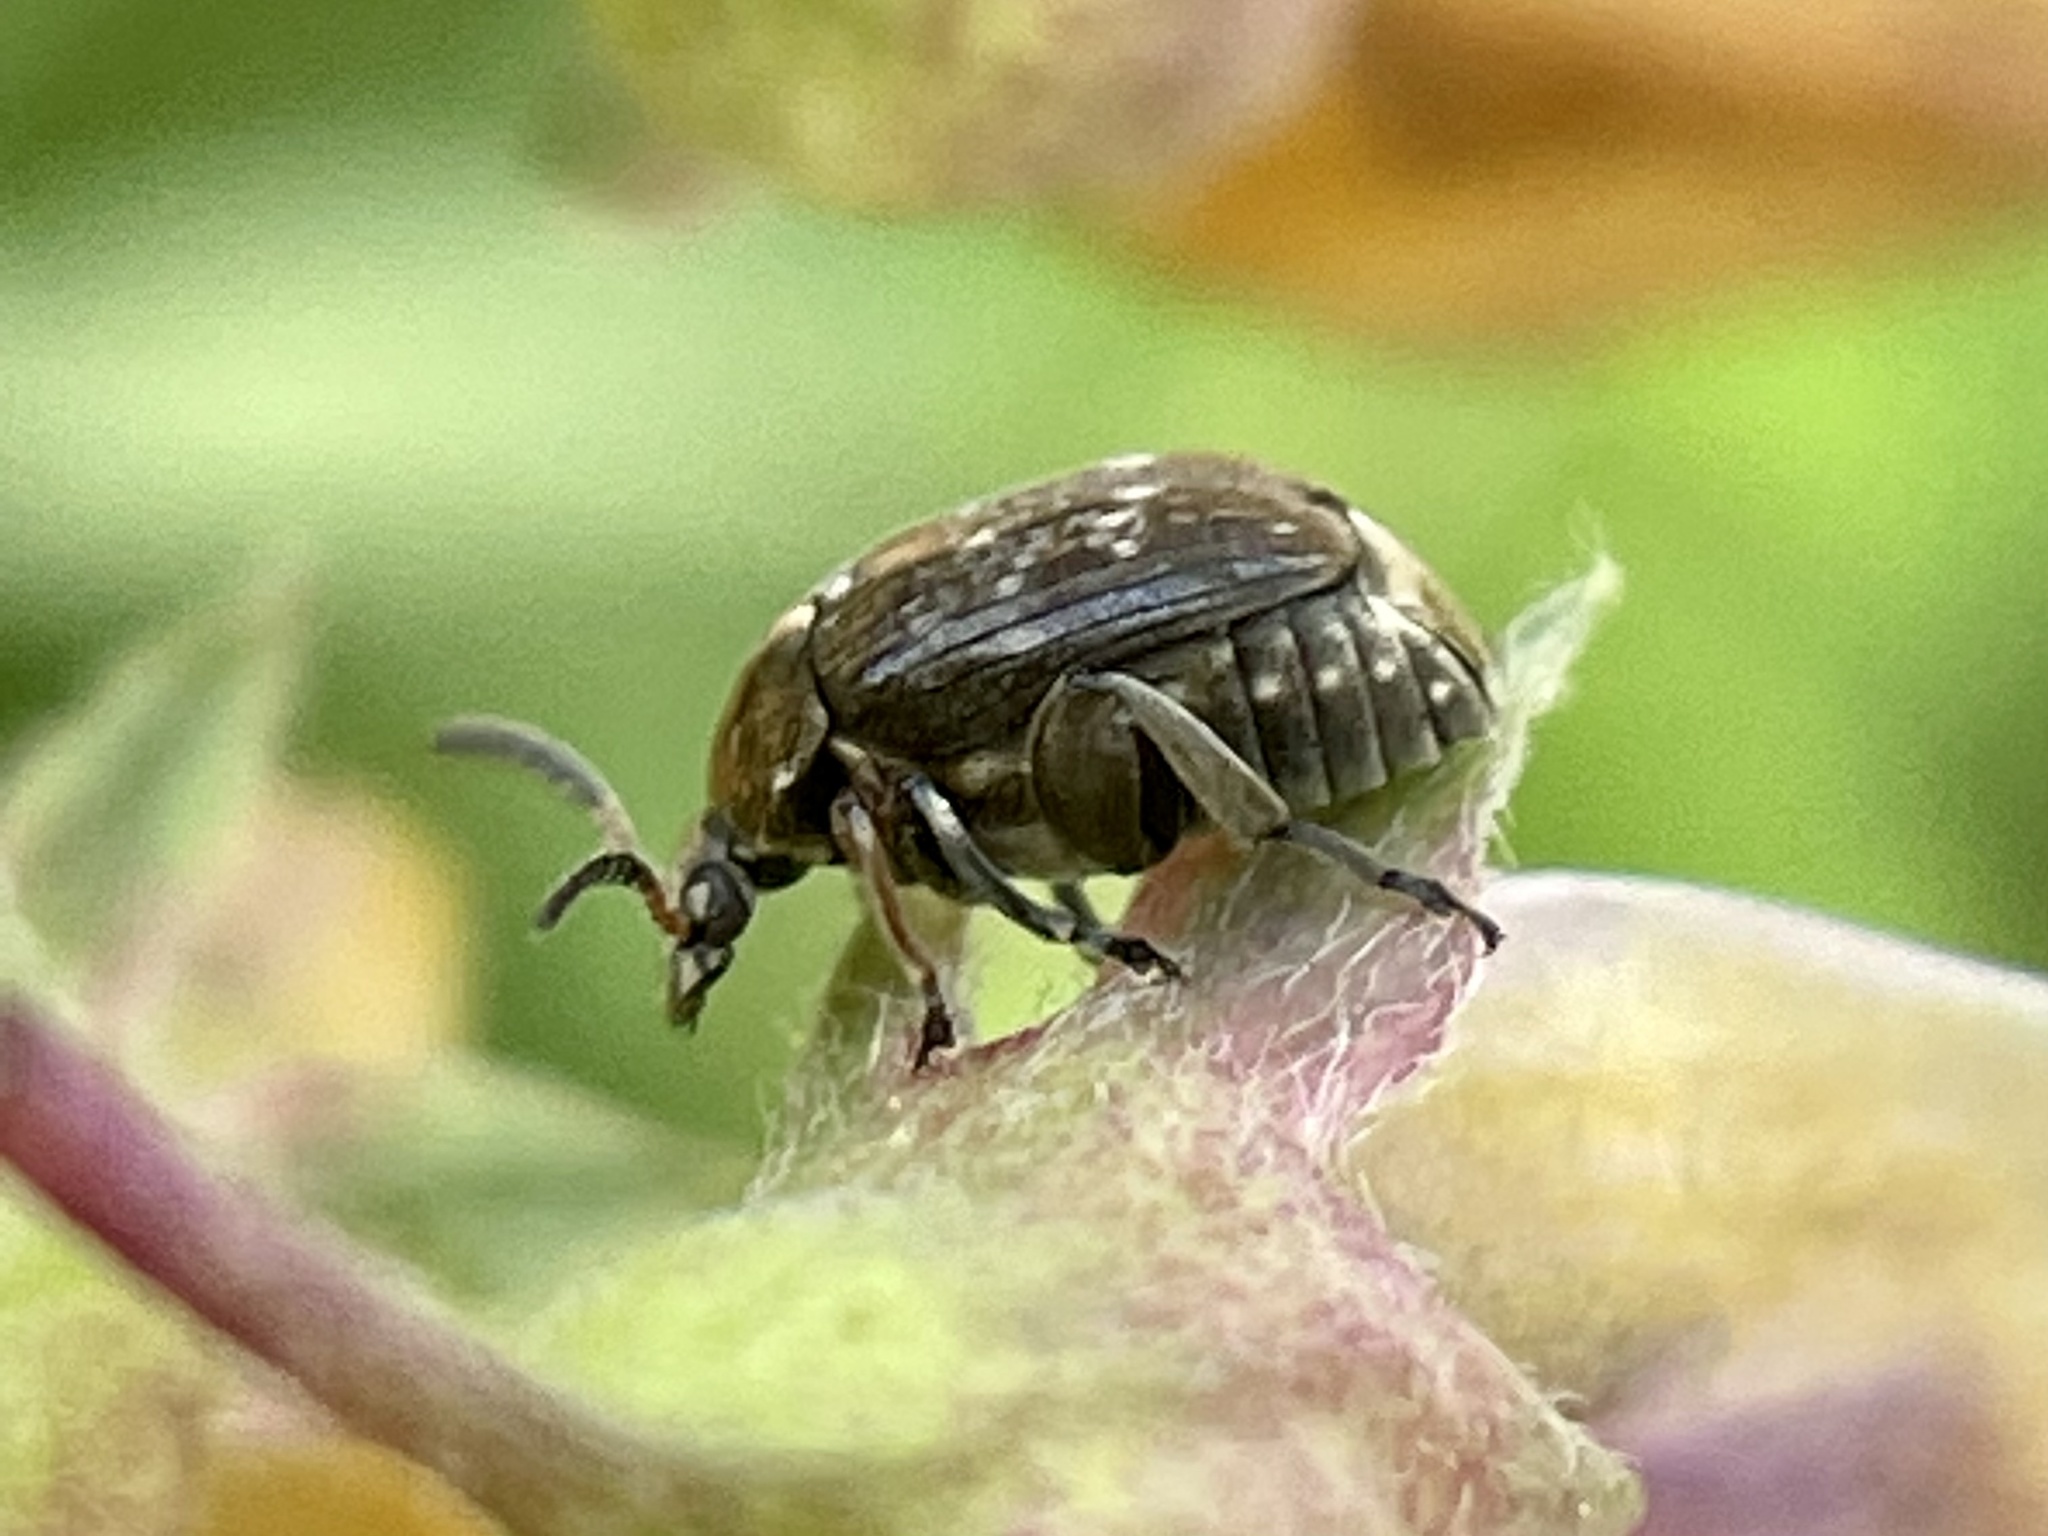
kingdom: Animalia
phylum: Arthropoda
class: Insecta
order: Coleoptera
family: Chrysomelidae
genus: Bruchus
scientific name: Bruchus rufimanus
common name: Broadbean weevil
